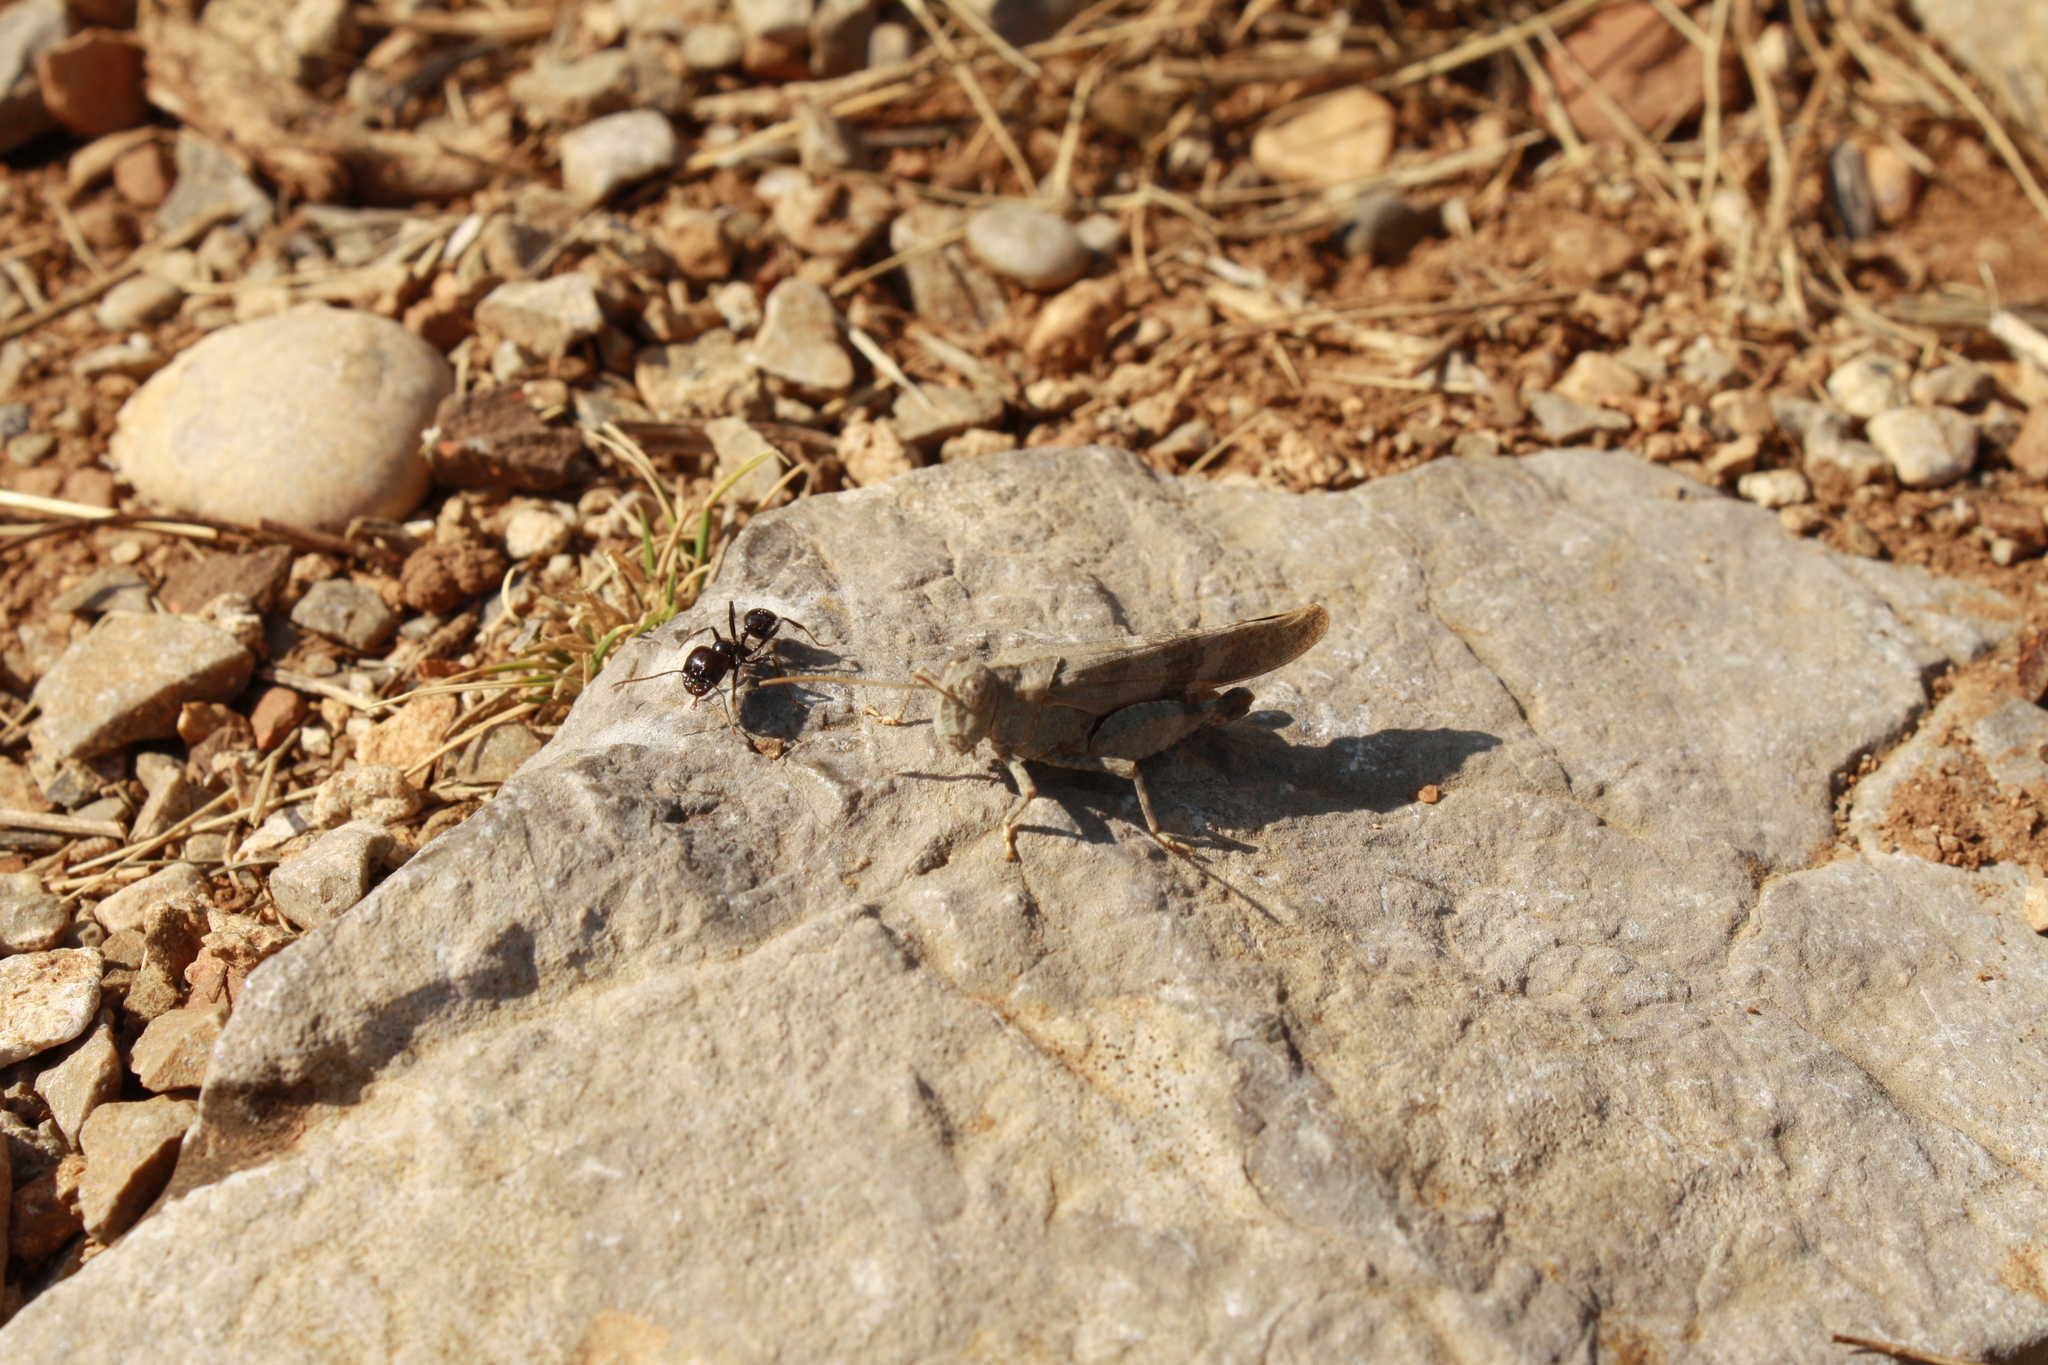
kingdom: Animalia
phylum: Arthropoda
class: Insecta
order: Hymenoptera
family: Formicidae
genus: Messor
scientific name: Messor barbarus
